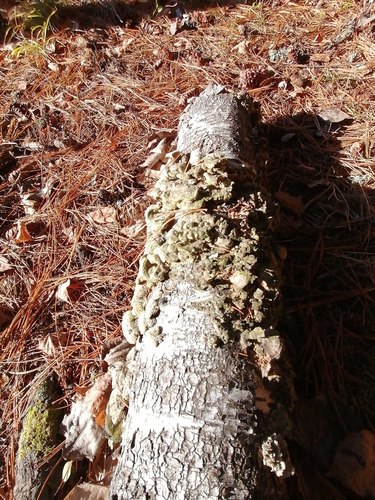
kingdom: Fungi
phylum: Basidiomycota
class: Agaricomycetes
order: Hymenochaetales
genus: Trichaptum
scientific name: Trichaptum biforme
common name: Violet-toothed polypore
